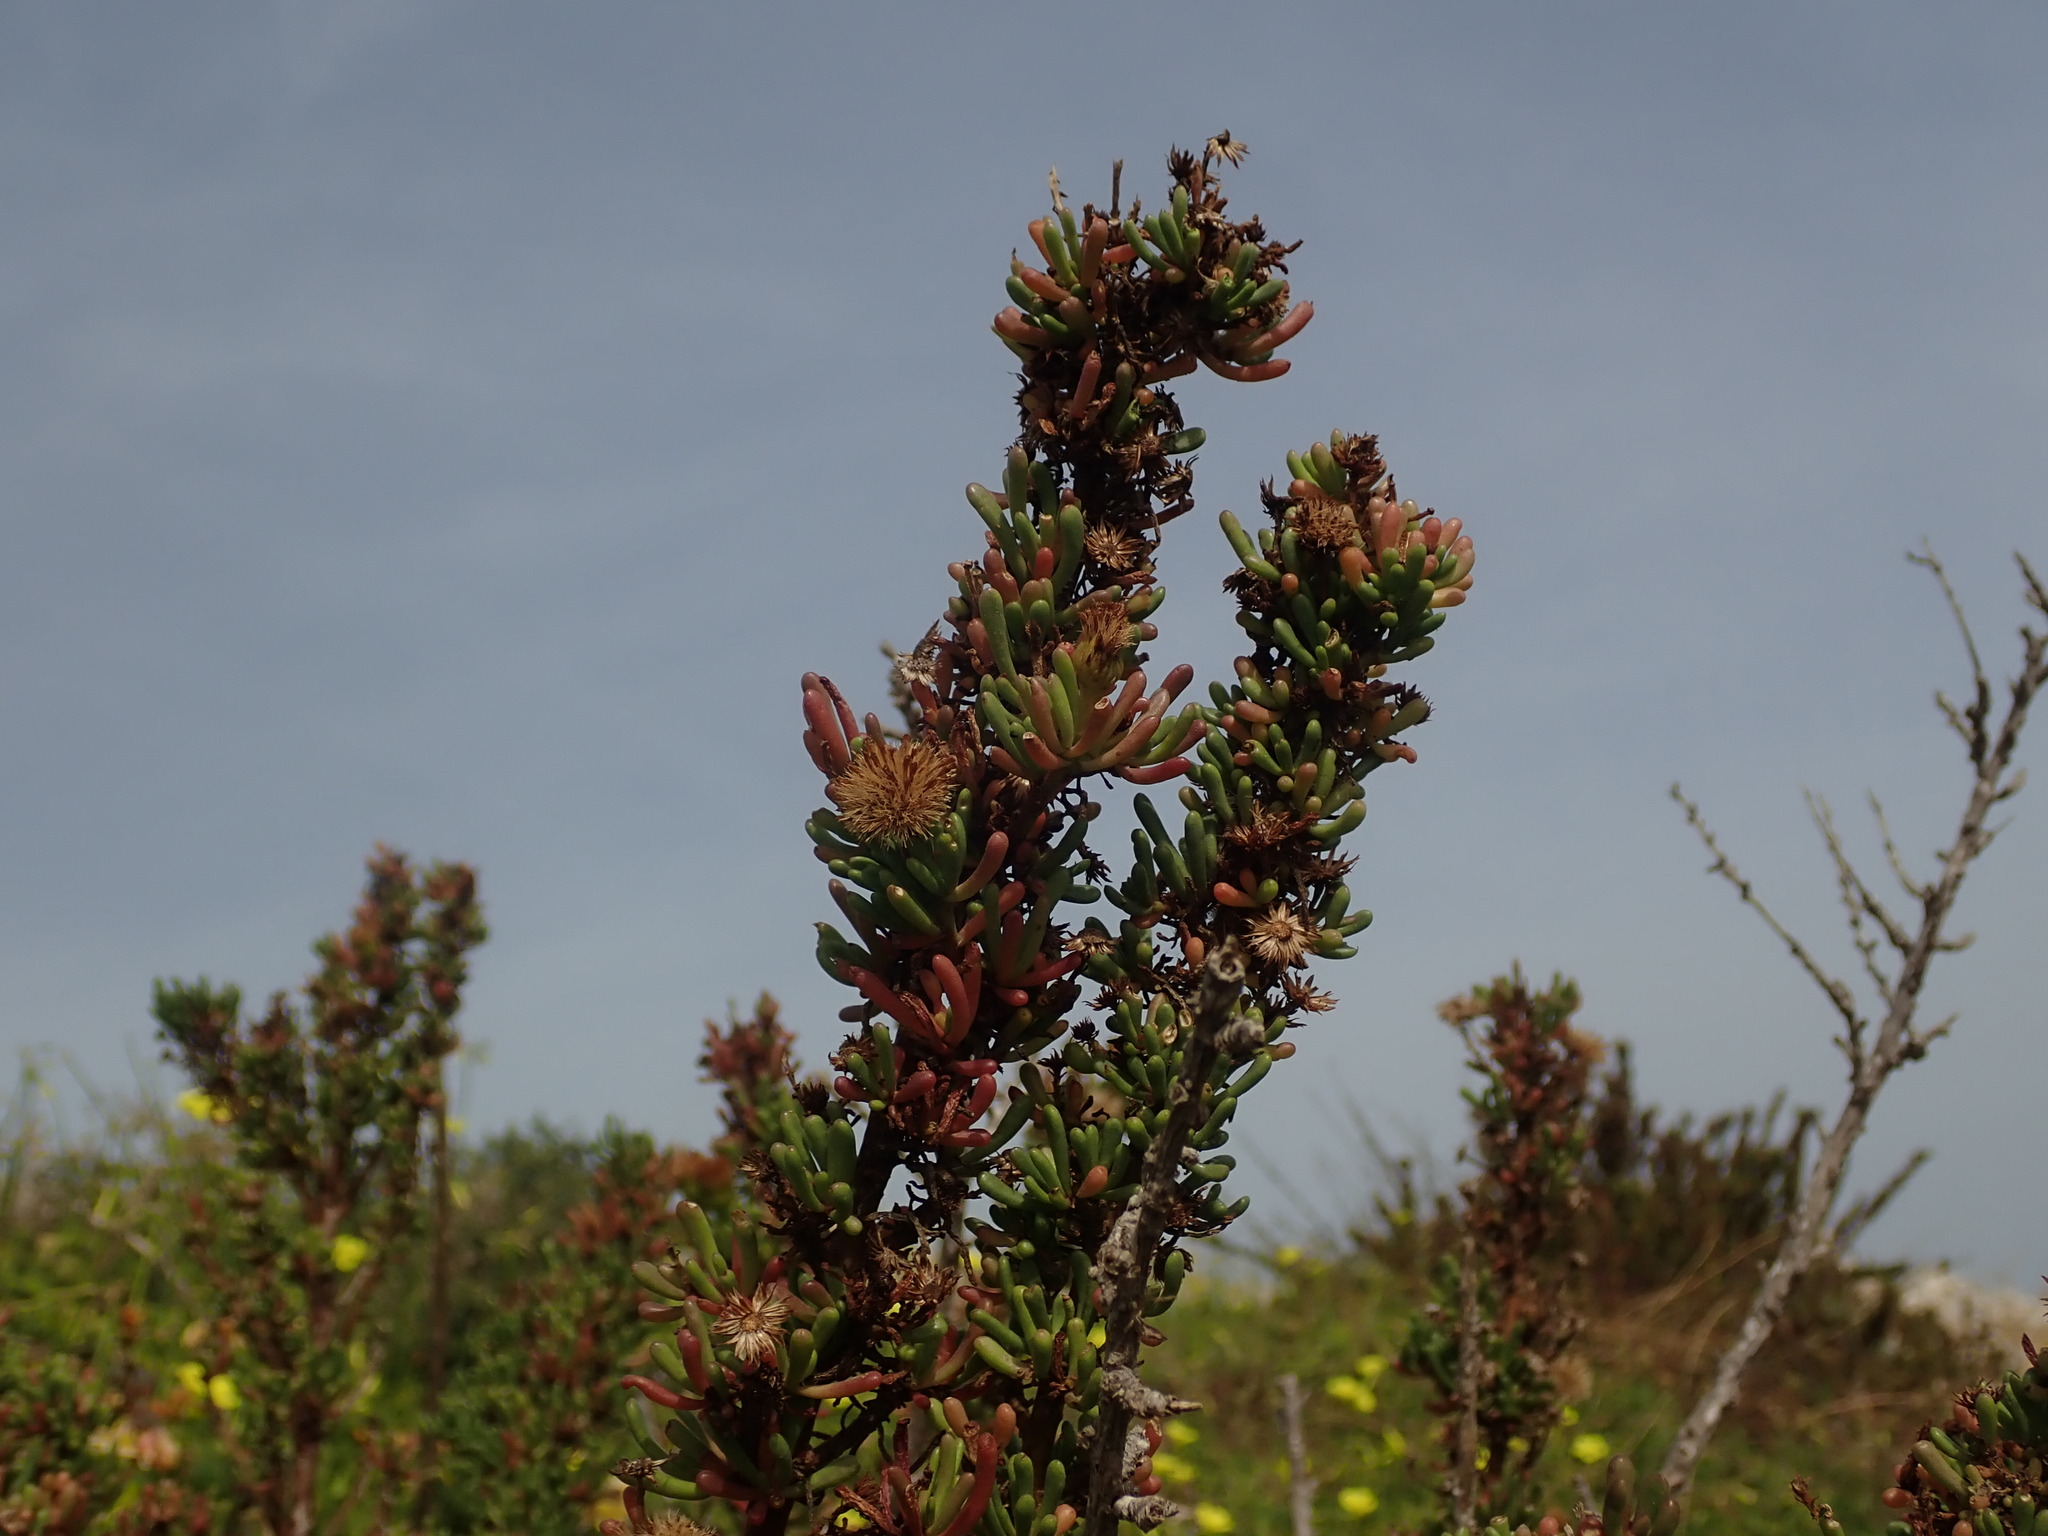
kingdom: Plantae
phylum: Tracheophyta
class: Magnoliopsida
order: Asterales
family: Asteraceae
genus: Limbarda
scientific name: Limbarda crithmoides
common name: Golden samphire
